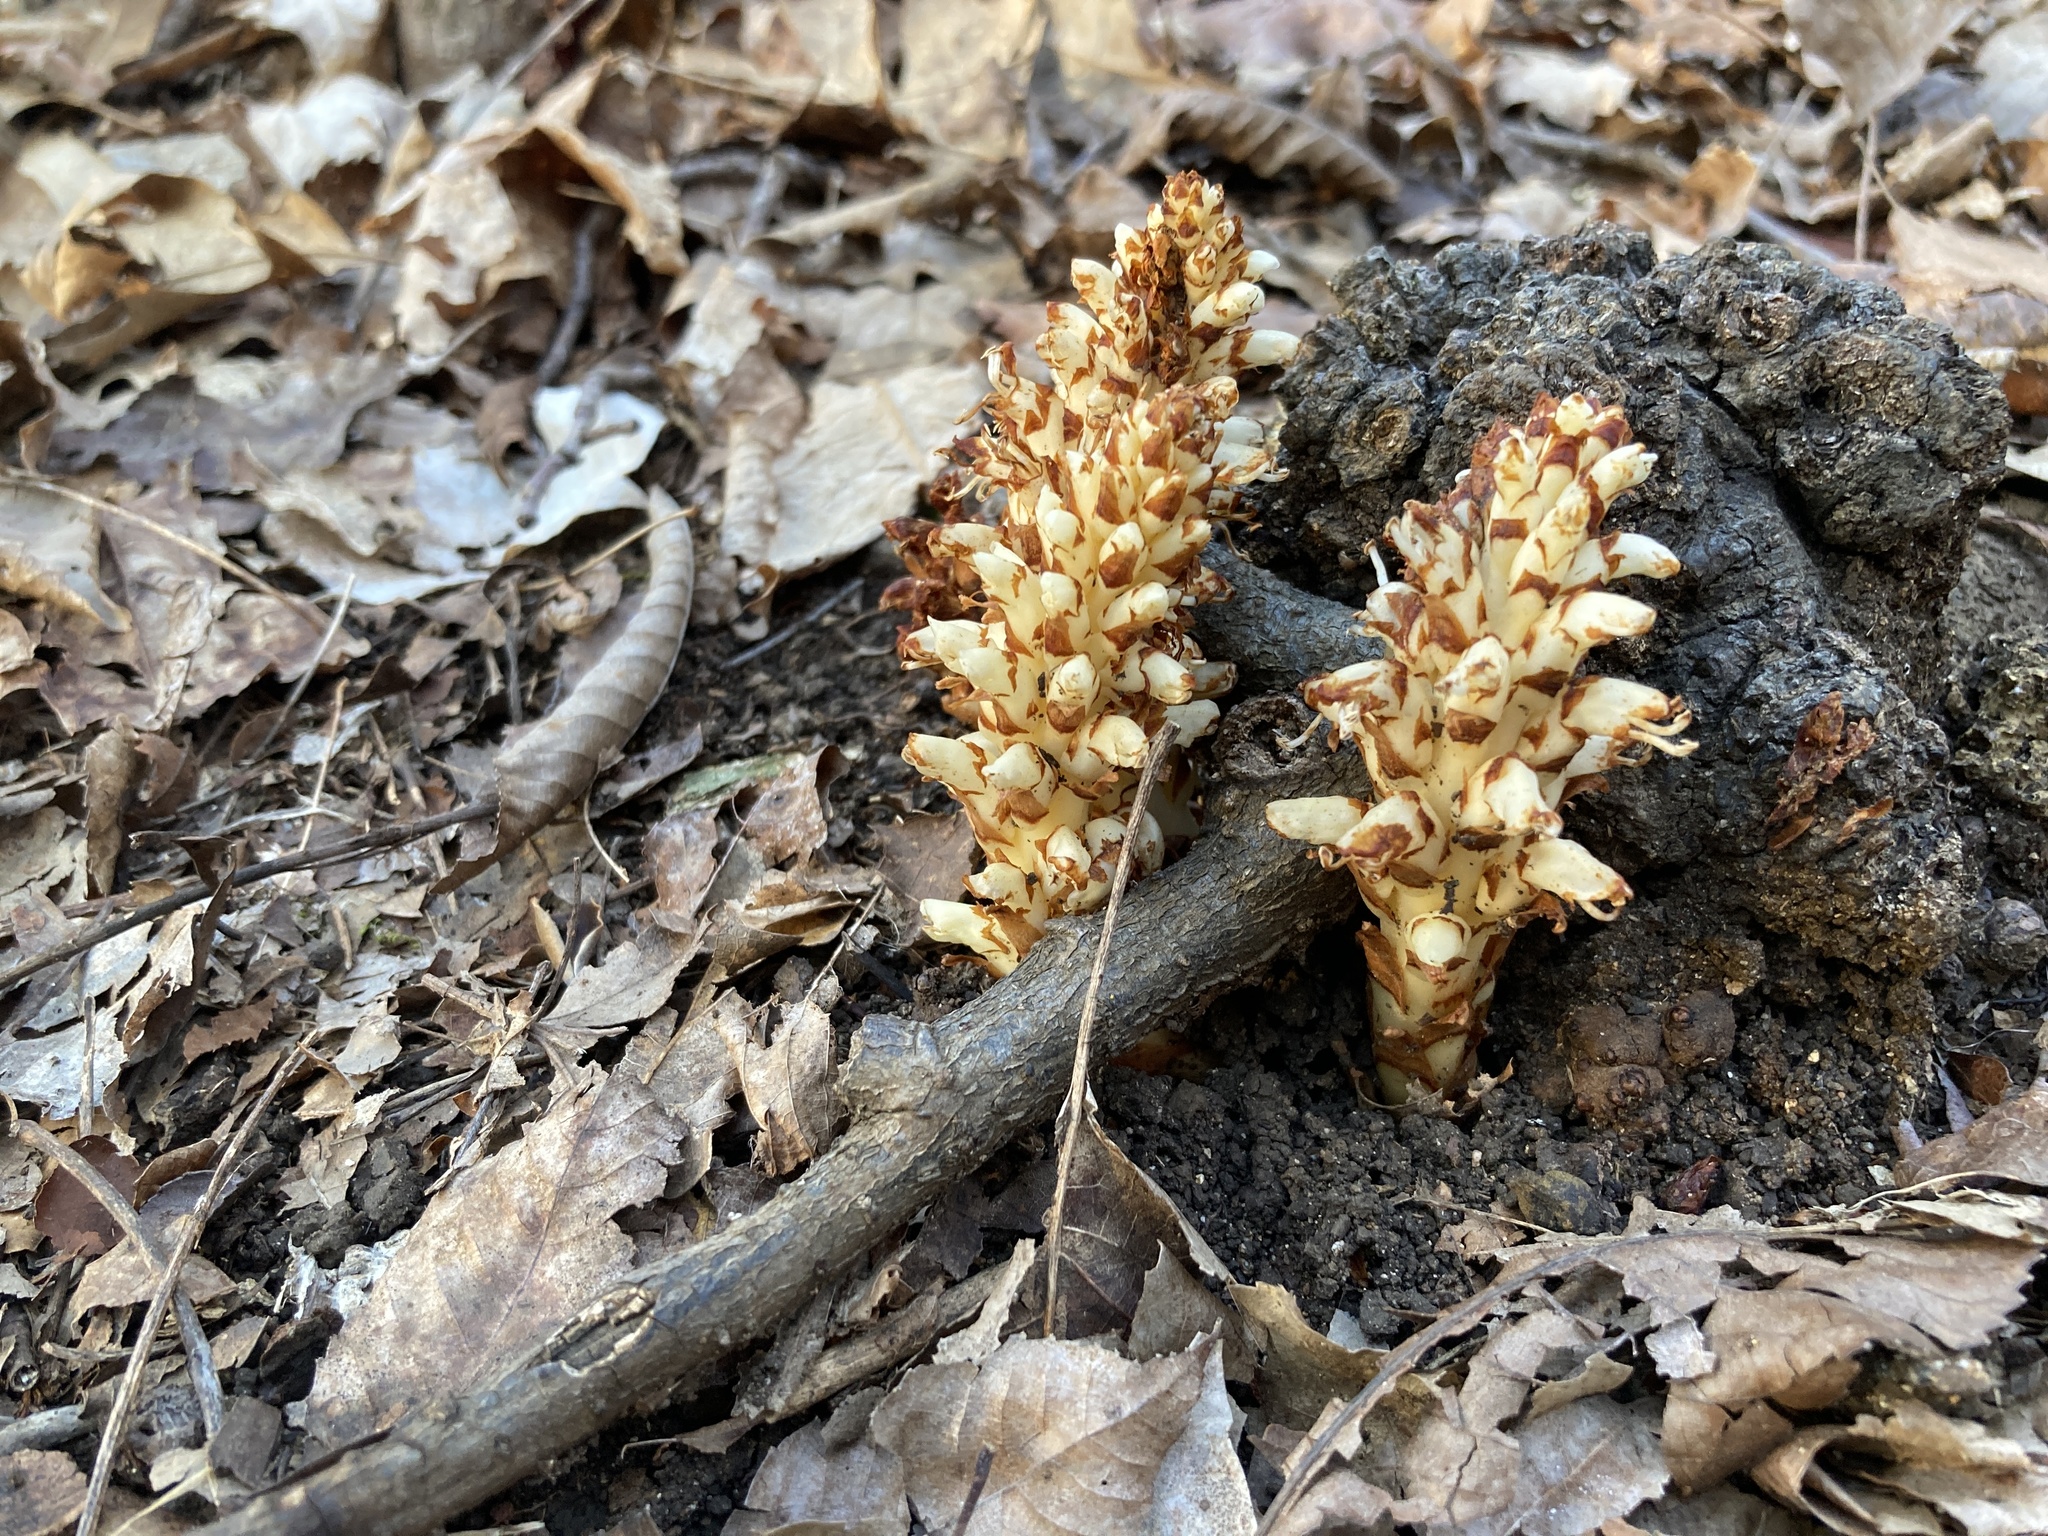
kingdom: Plantae
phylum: Tracheophyta
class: Magnoliopsida
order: Lamiales
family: Orobanchaceae
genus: Conopholis
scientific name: Conopholis americana
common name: American cancer-root
